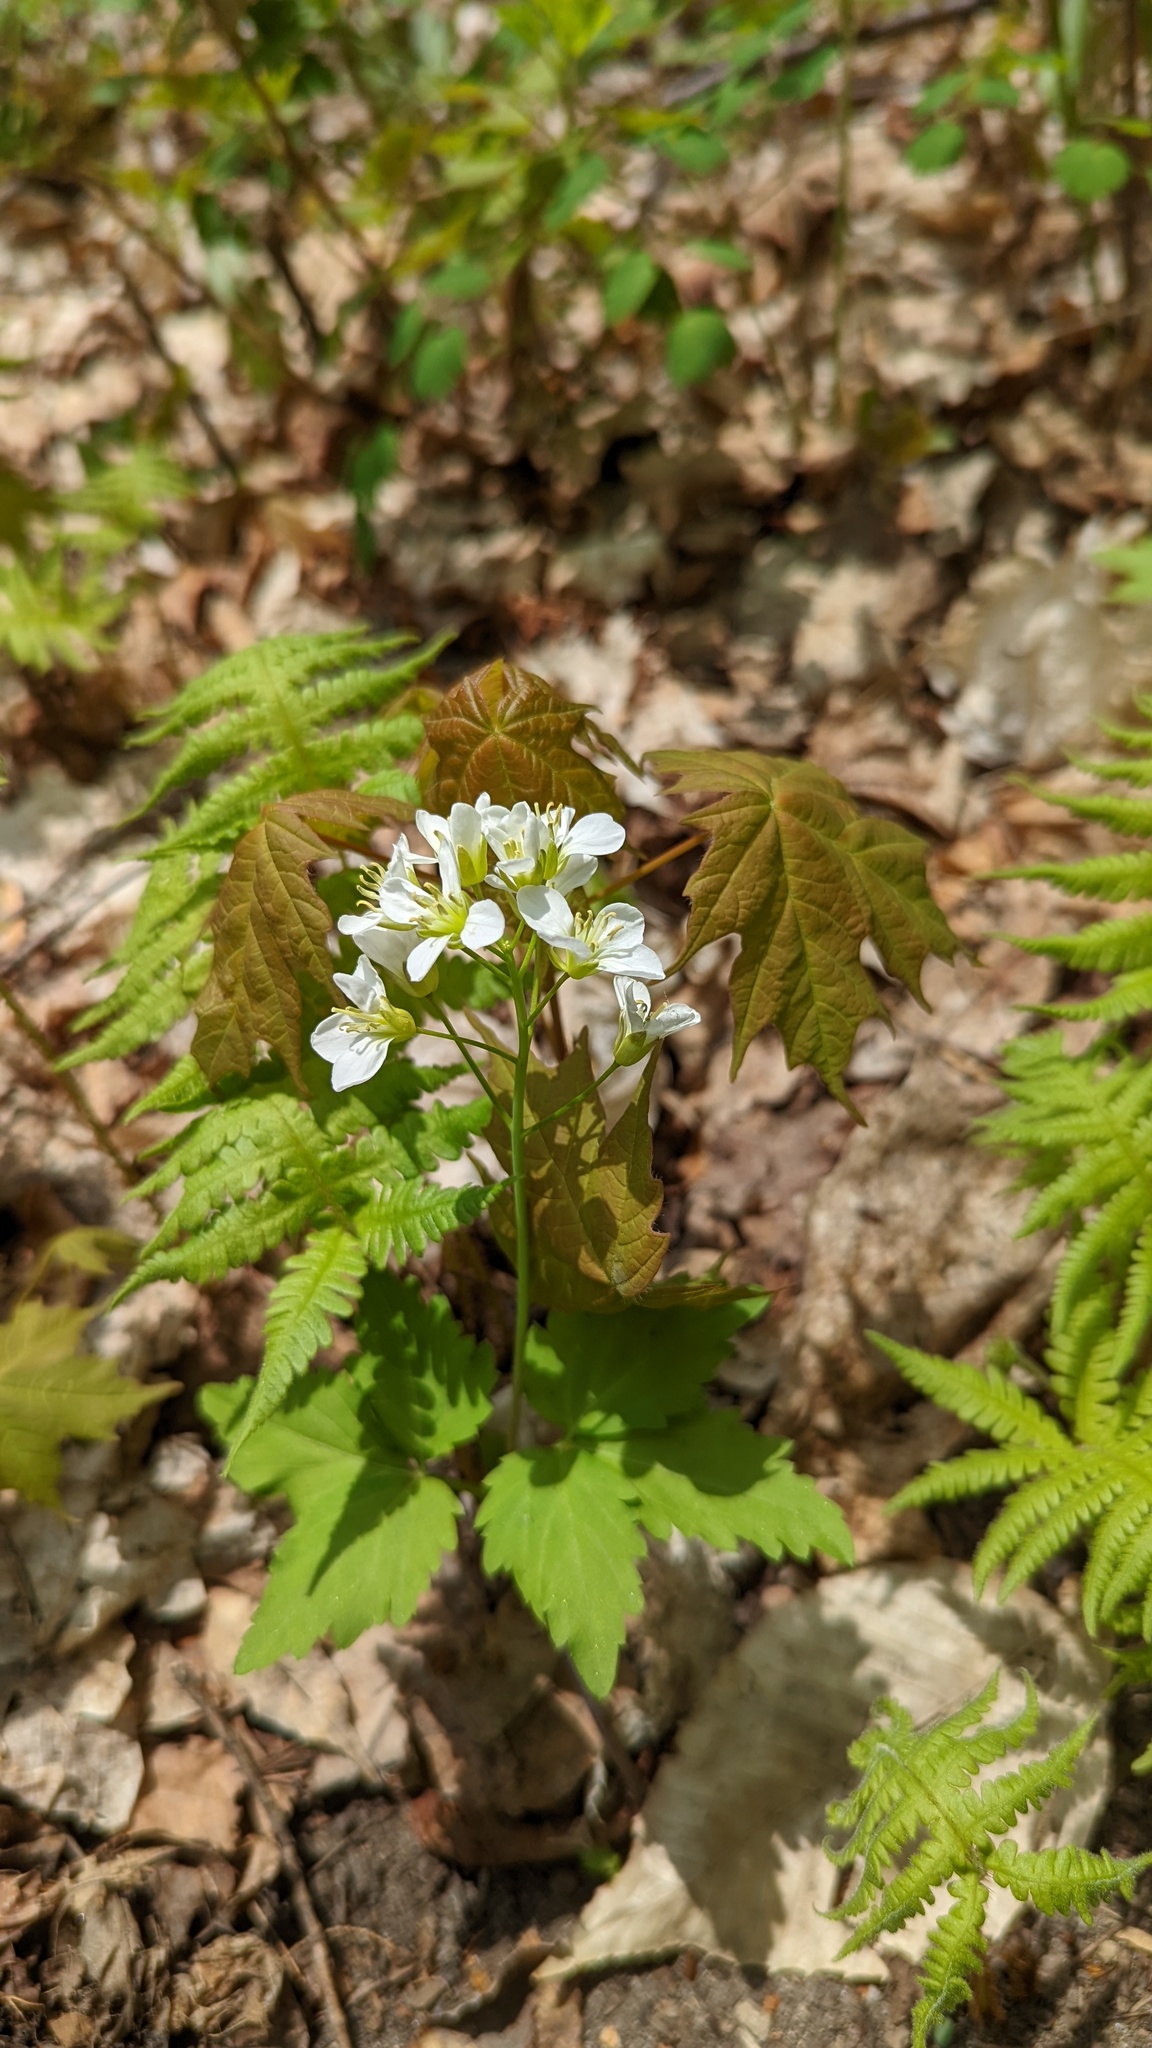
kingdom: Plantae
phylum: Tracheophyta
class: Magnoliopsida
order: Brassicales
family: Brassicaceae
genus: Cardamine
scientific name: Cardamine diphylla
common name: Broad-leaved toothwort
